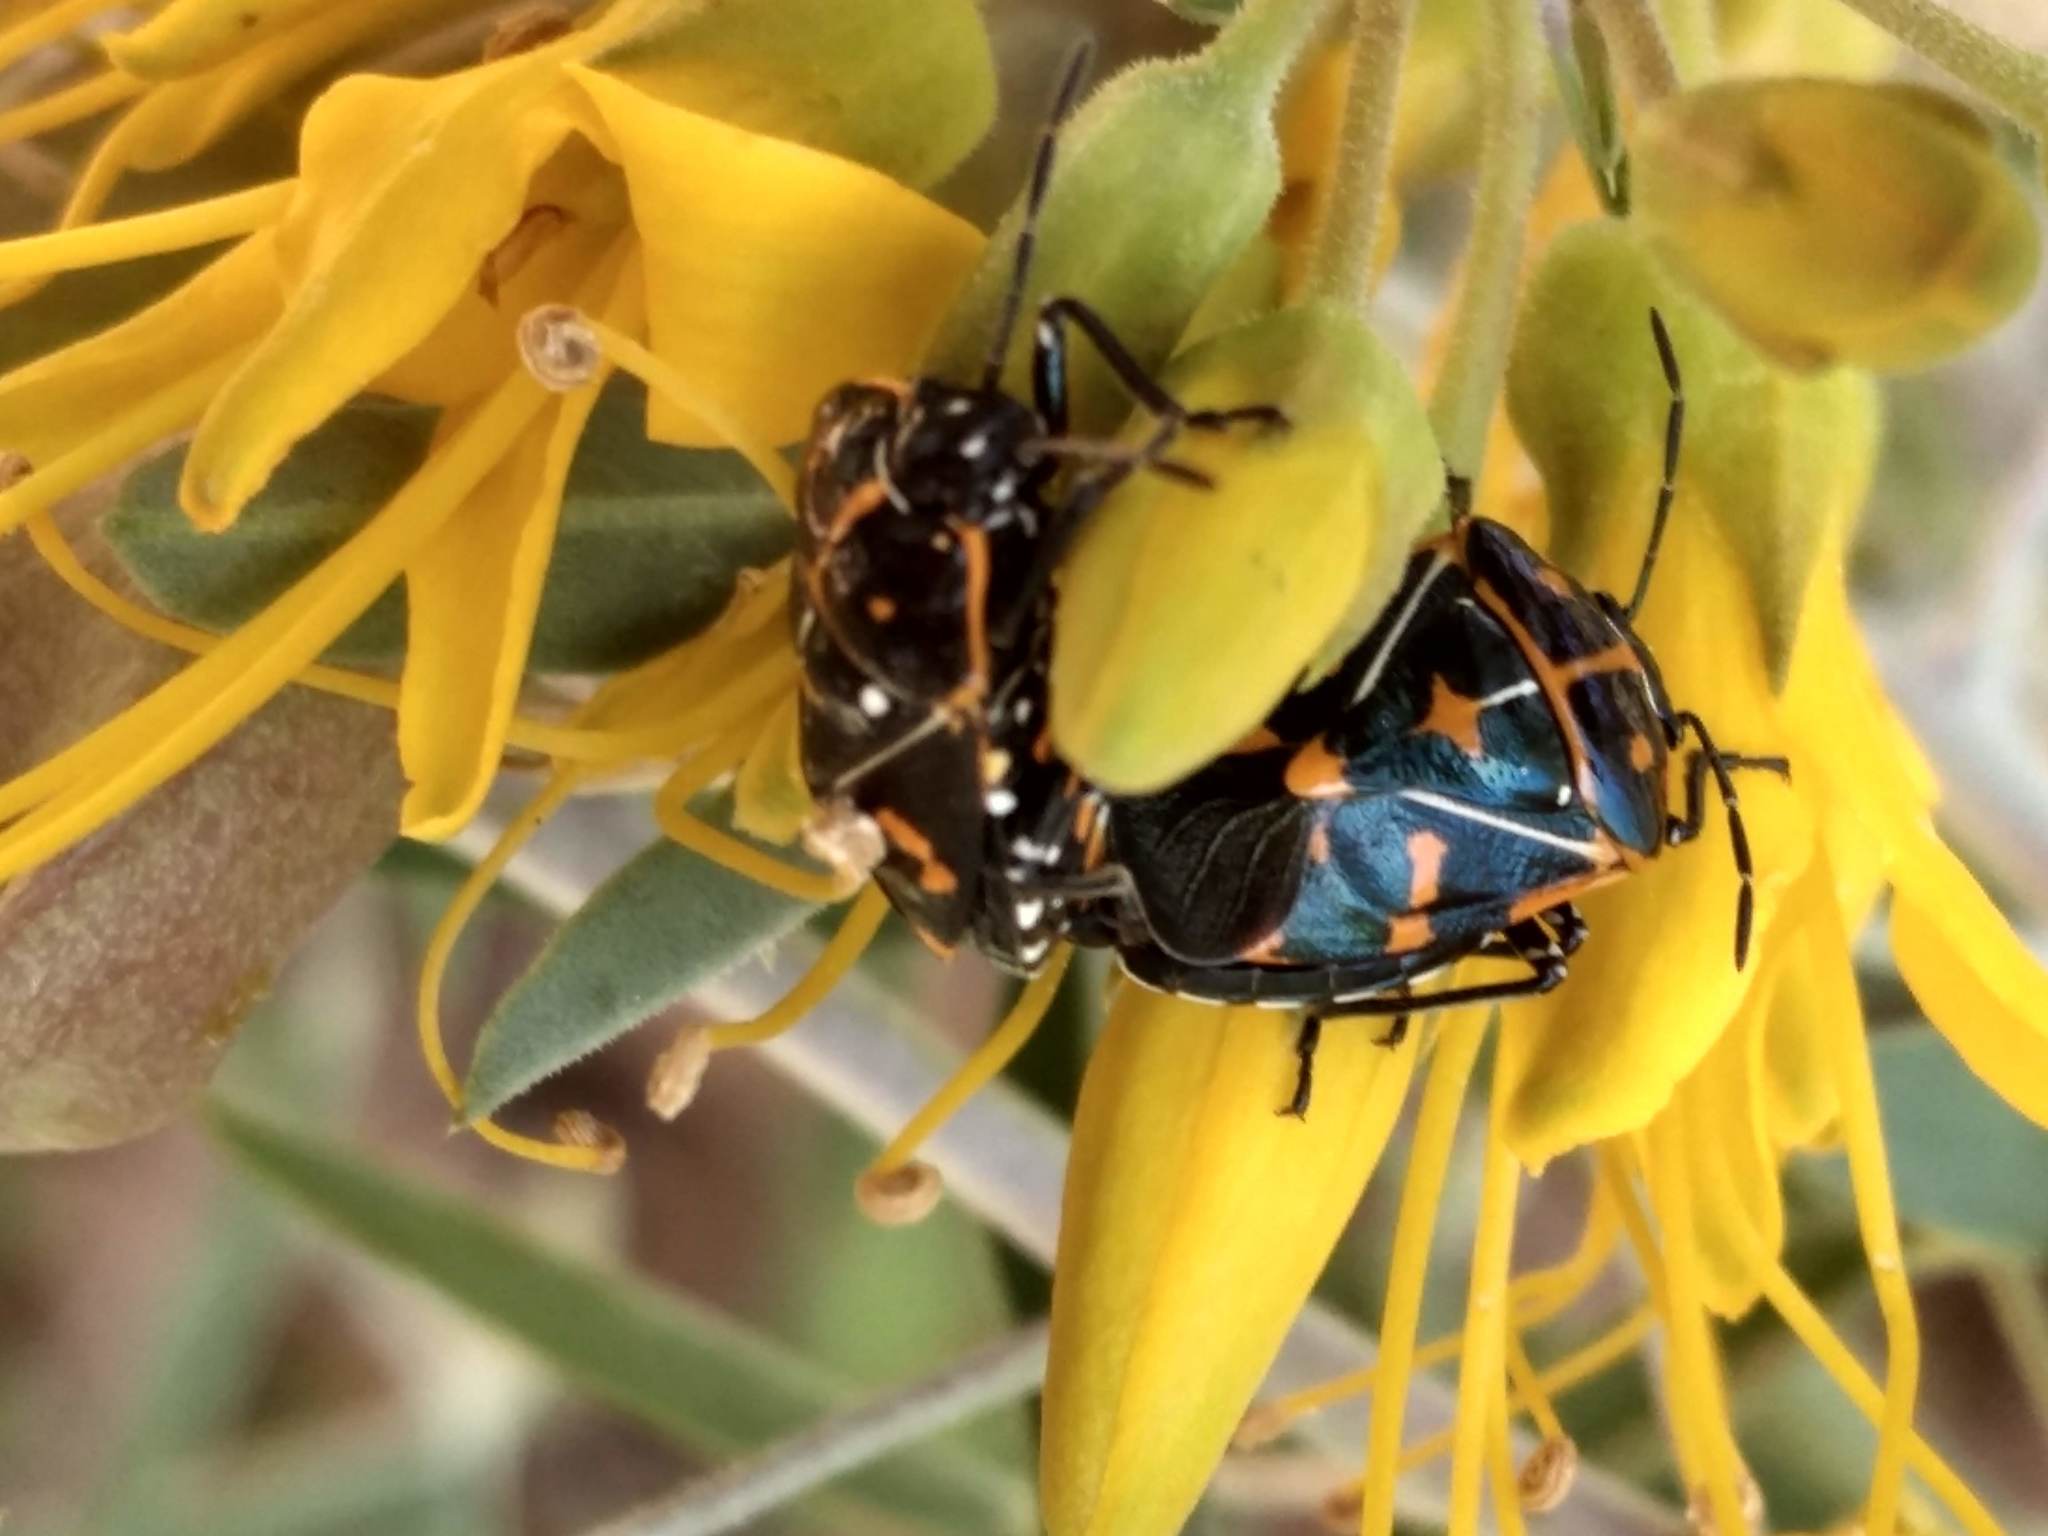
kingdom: Animalia
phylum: Arthropoda
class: Insecta
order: Hemiptera
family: Pentatomidae
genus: Murgantia
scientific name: Murgantia histrionica
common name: Harlequin bug
